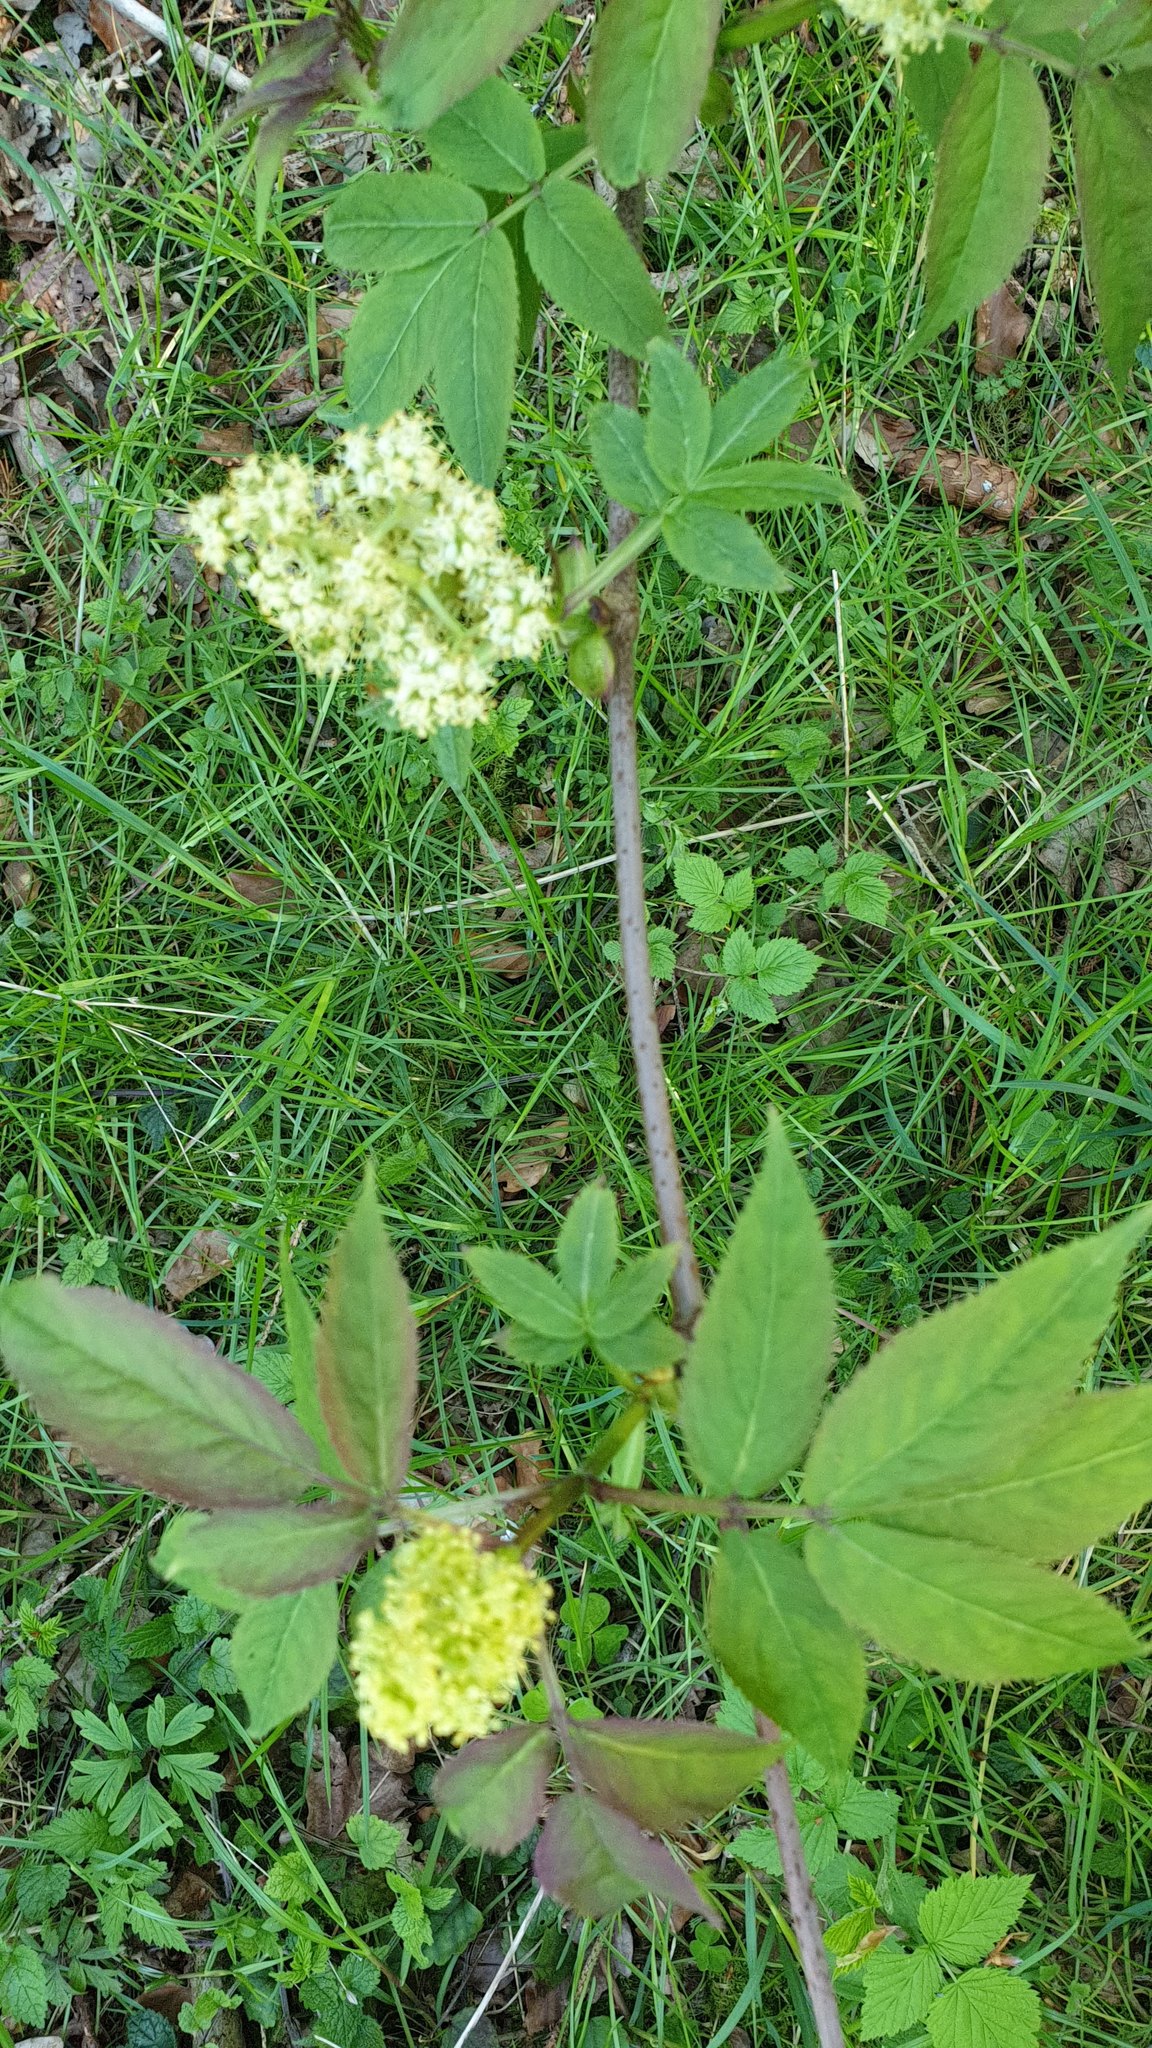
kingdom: Plantae
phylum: Tracheophyta
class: Magnoliopsida
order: Dipsacales
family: Viburnaceae
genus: Sambucus
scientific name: Sambucus racemosa
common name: Red-berried elder
